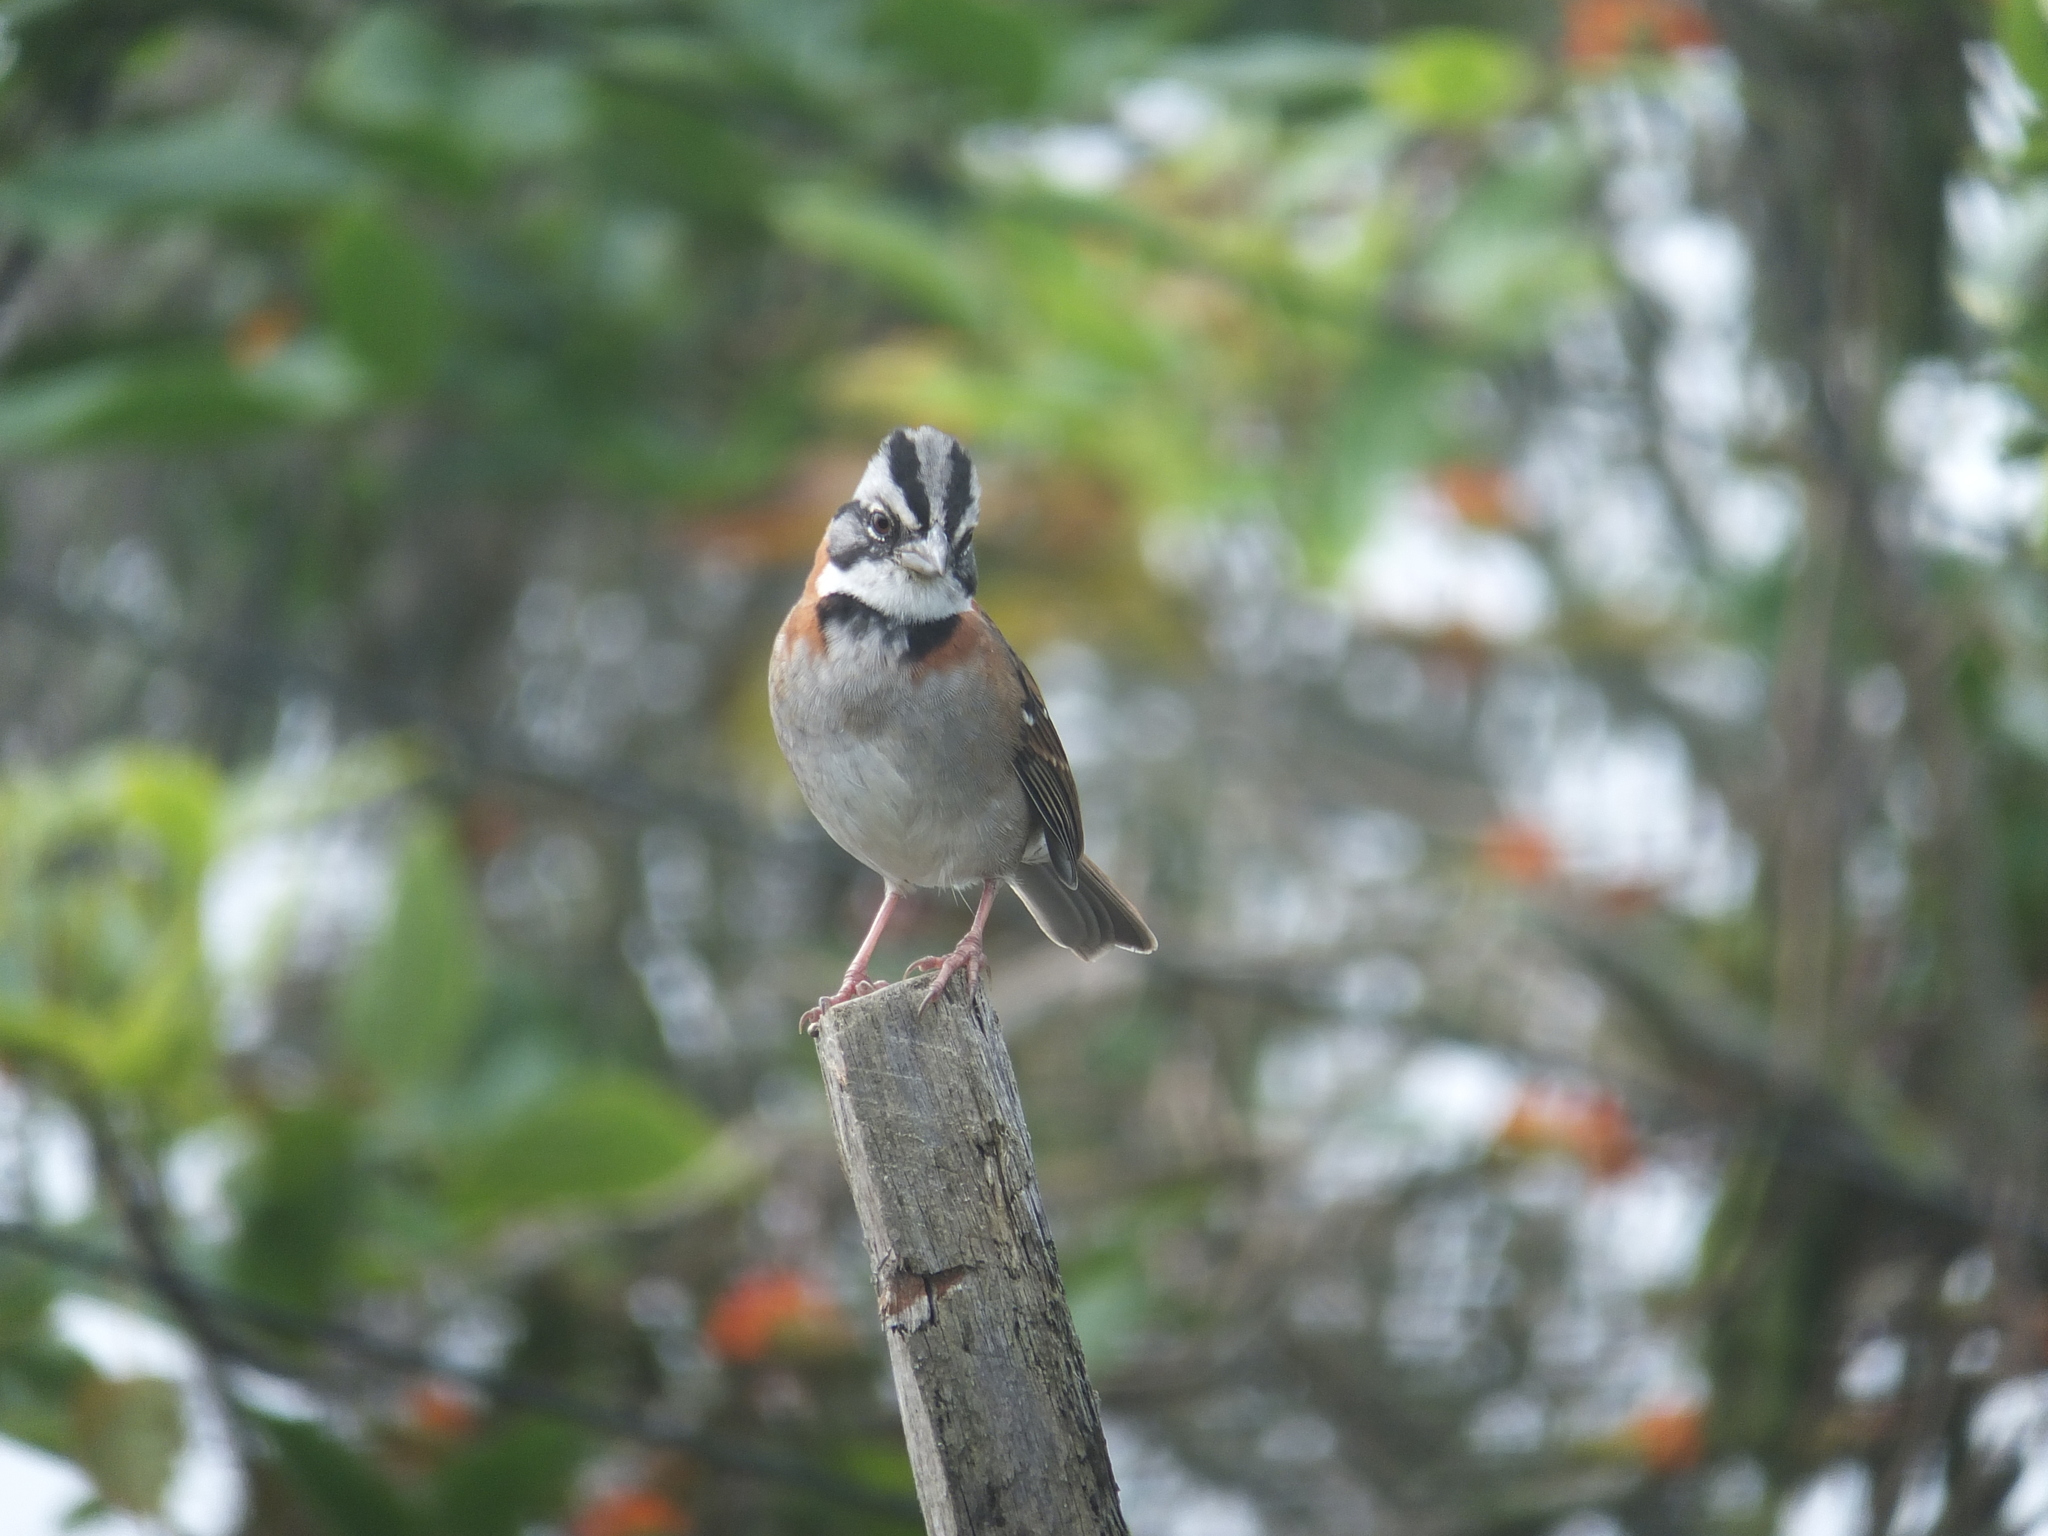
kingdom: Animalia
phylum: Chordata
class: Aves
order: Passeriformes
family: Passerellidae
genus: Zonotrichia
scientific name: Zonotrichia capensis
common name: Rufous-collared sparrow
